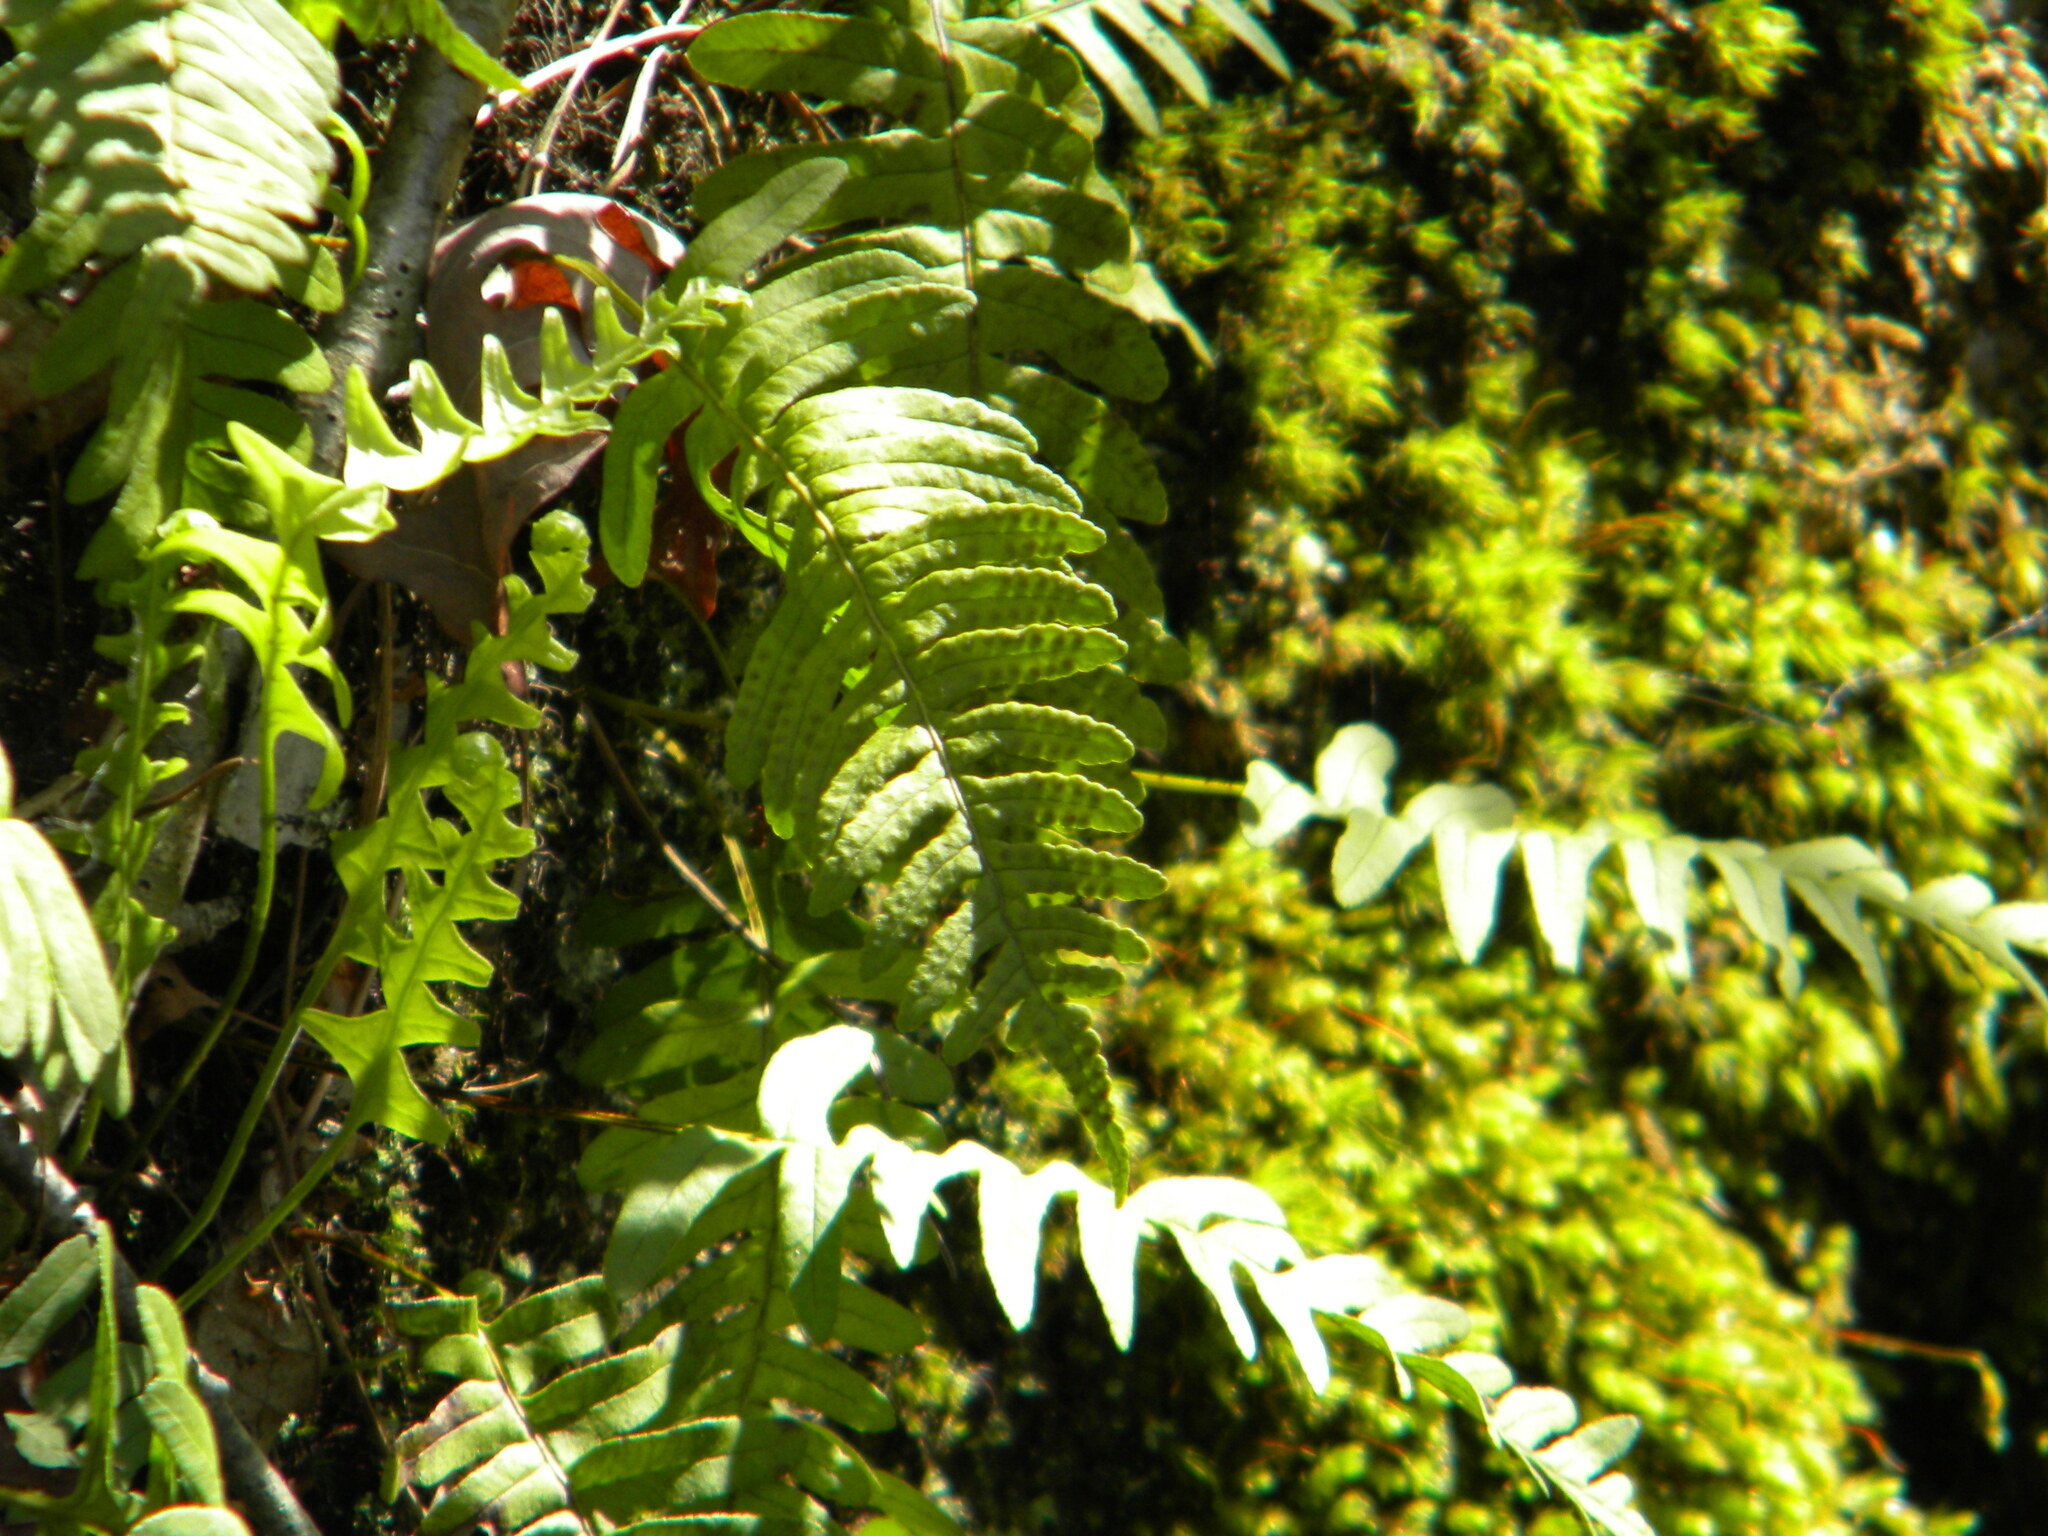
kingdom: Plantae
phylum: Tracheophyta
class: Polypodiopsida
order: Polypodiales
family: Polypodiaceae
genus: Polypodium
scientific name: Polypodium virginianum
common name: American wall fern
